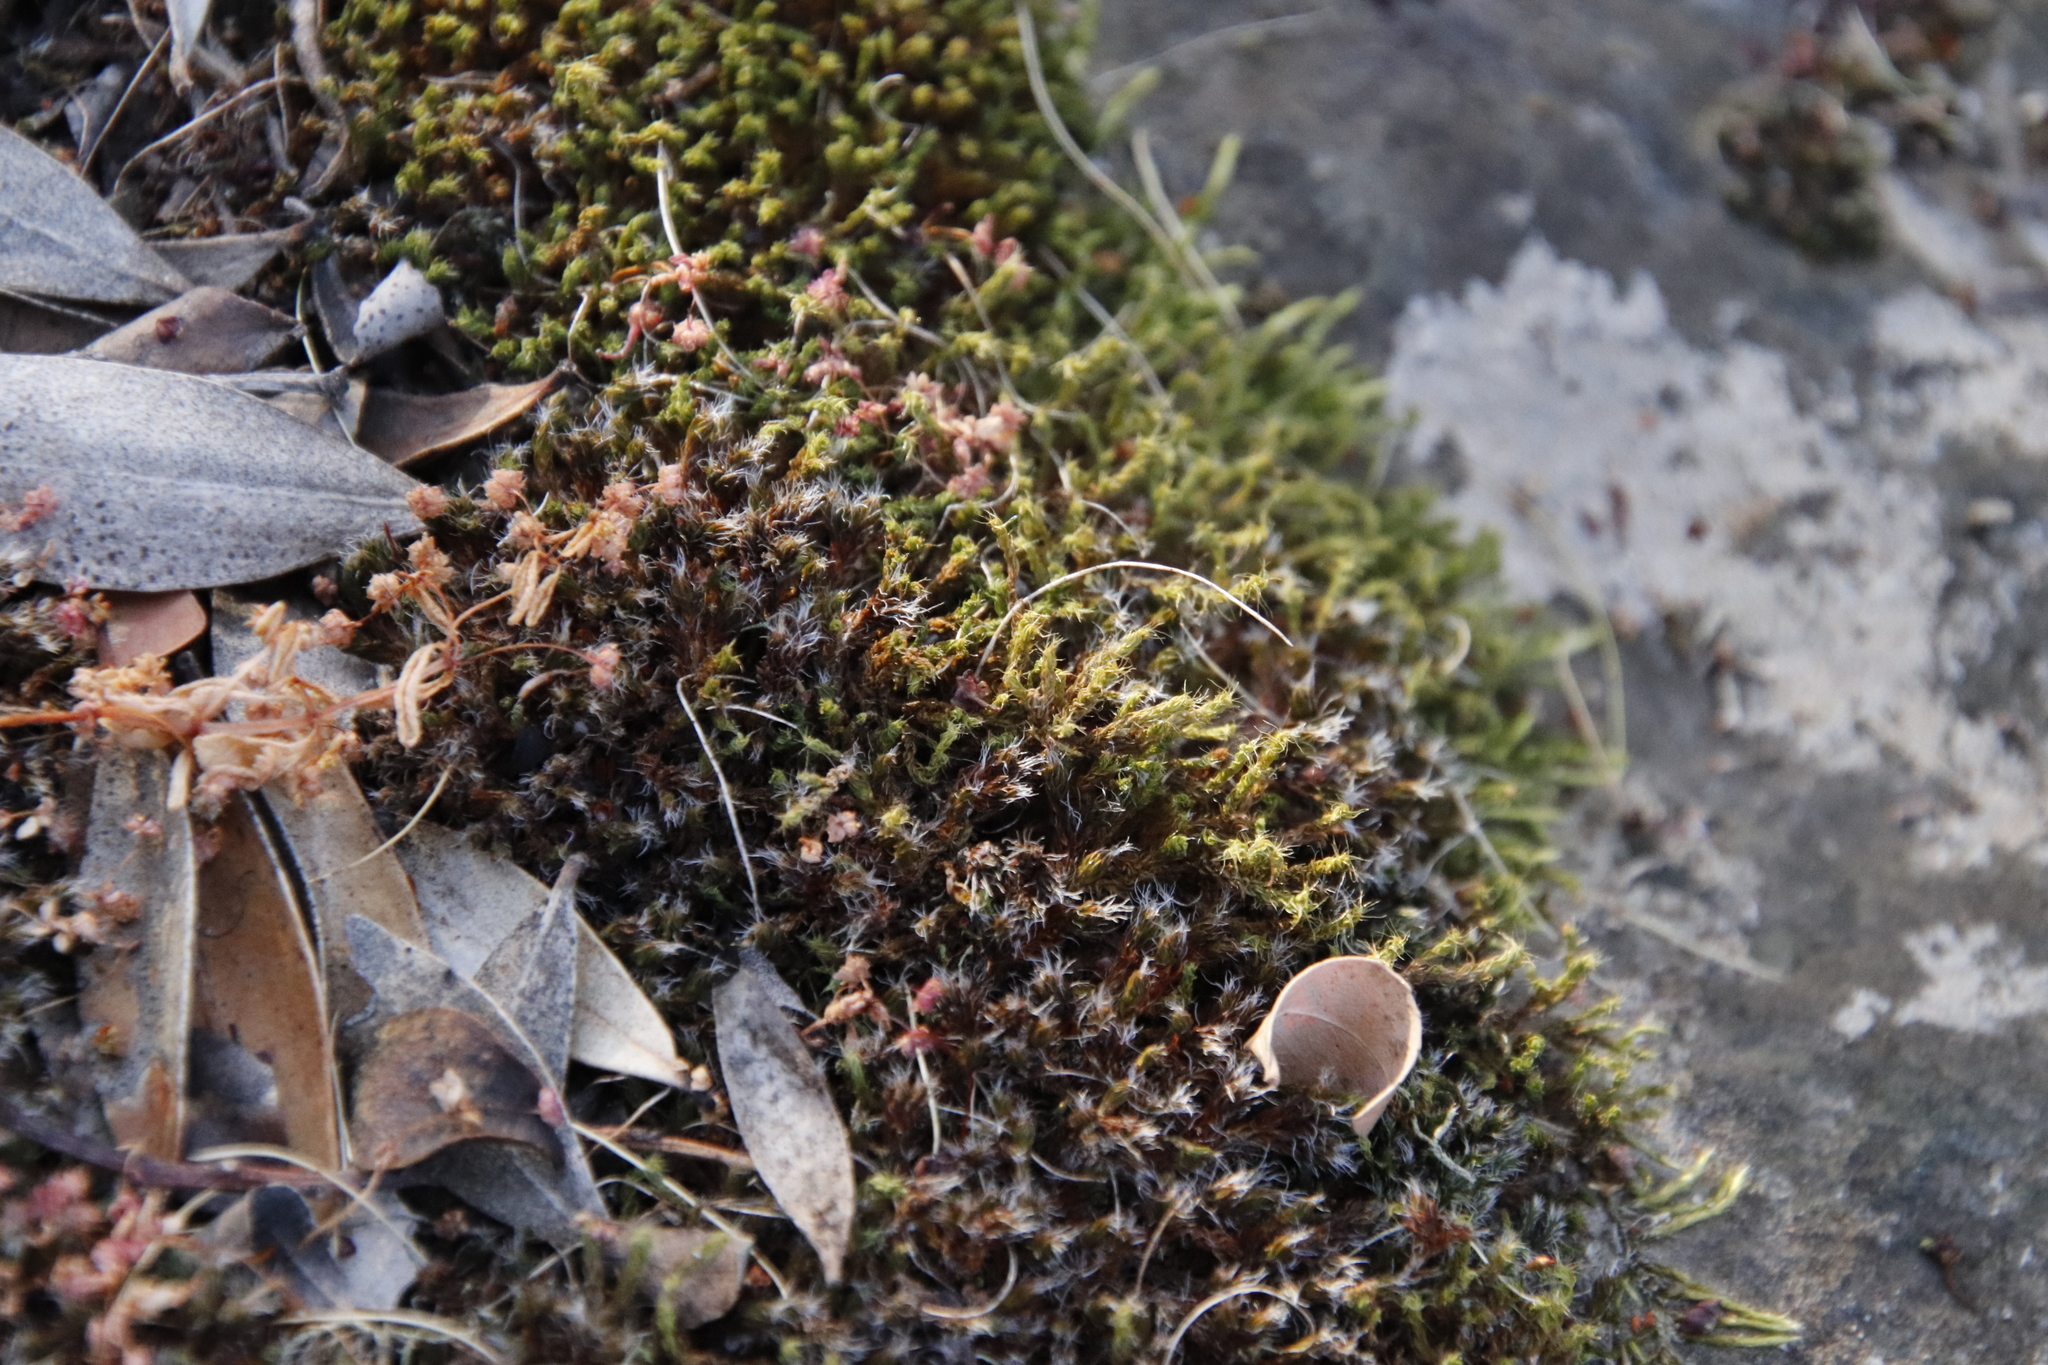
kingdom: Plantae
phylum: Bryophyta
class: Bryopsida
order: Pottiales
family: Pottiaceae
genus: Pseudocrossidium
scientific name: Pseudocrossidium crinitum
